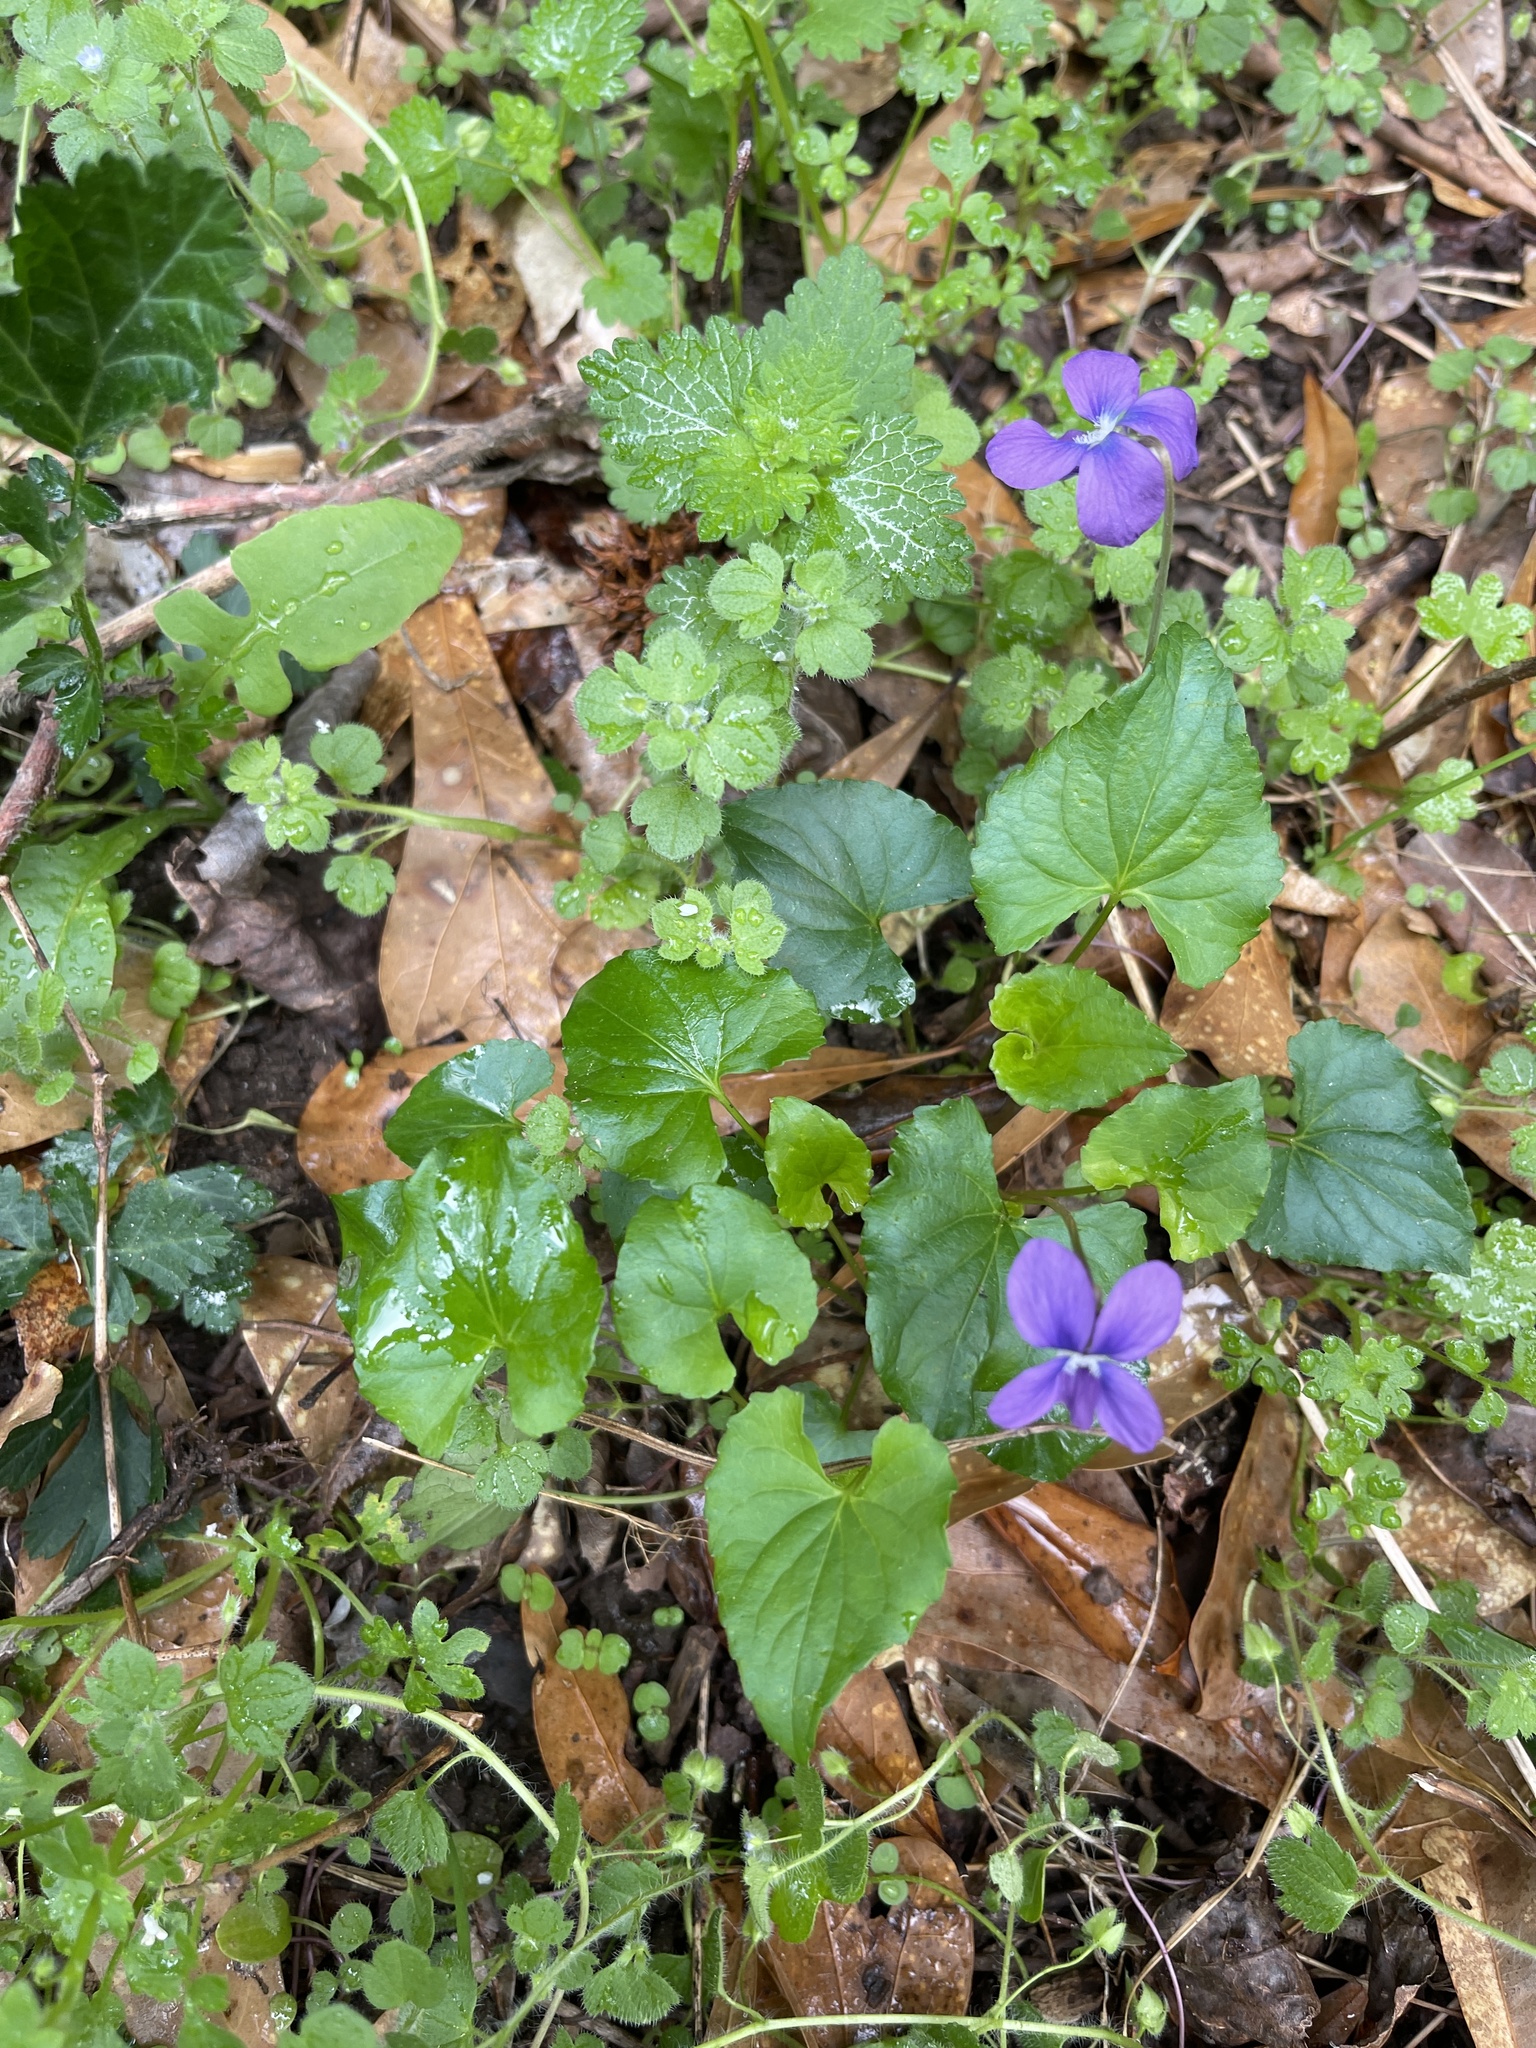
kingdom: Plantae
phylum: Tracheophyta
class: Magnoliopsida
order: Malpighiales
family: Violaceae
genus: Viola
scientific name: Viola sororia
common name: Dooryard violet
